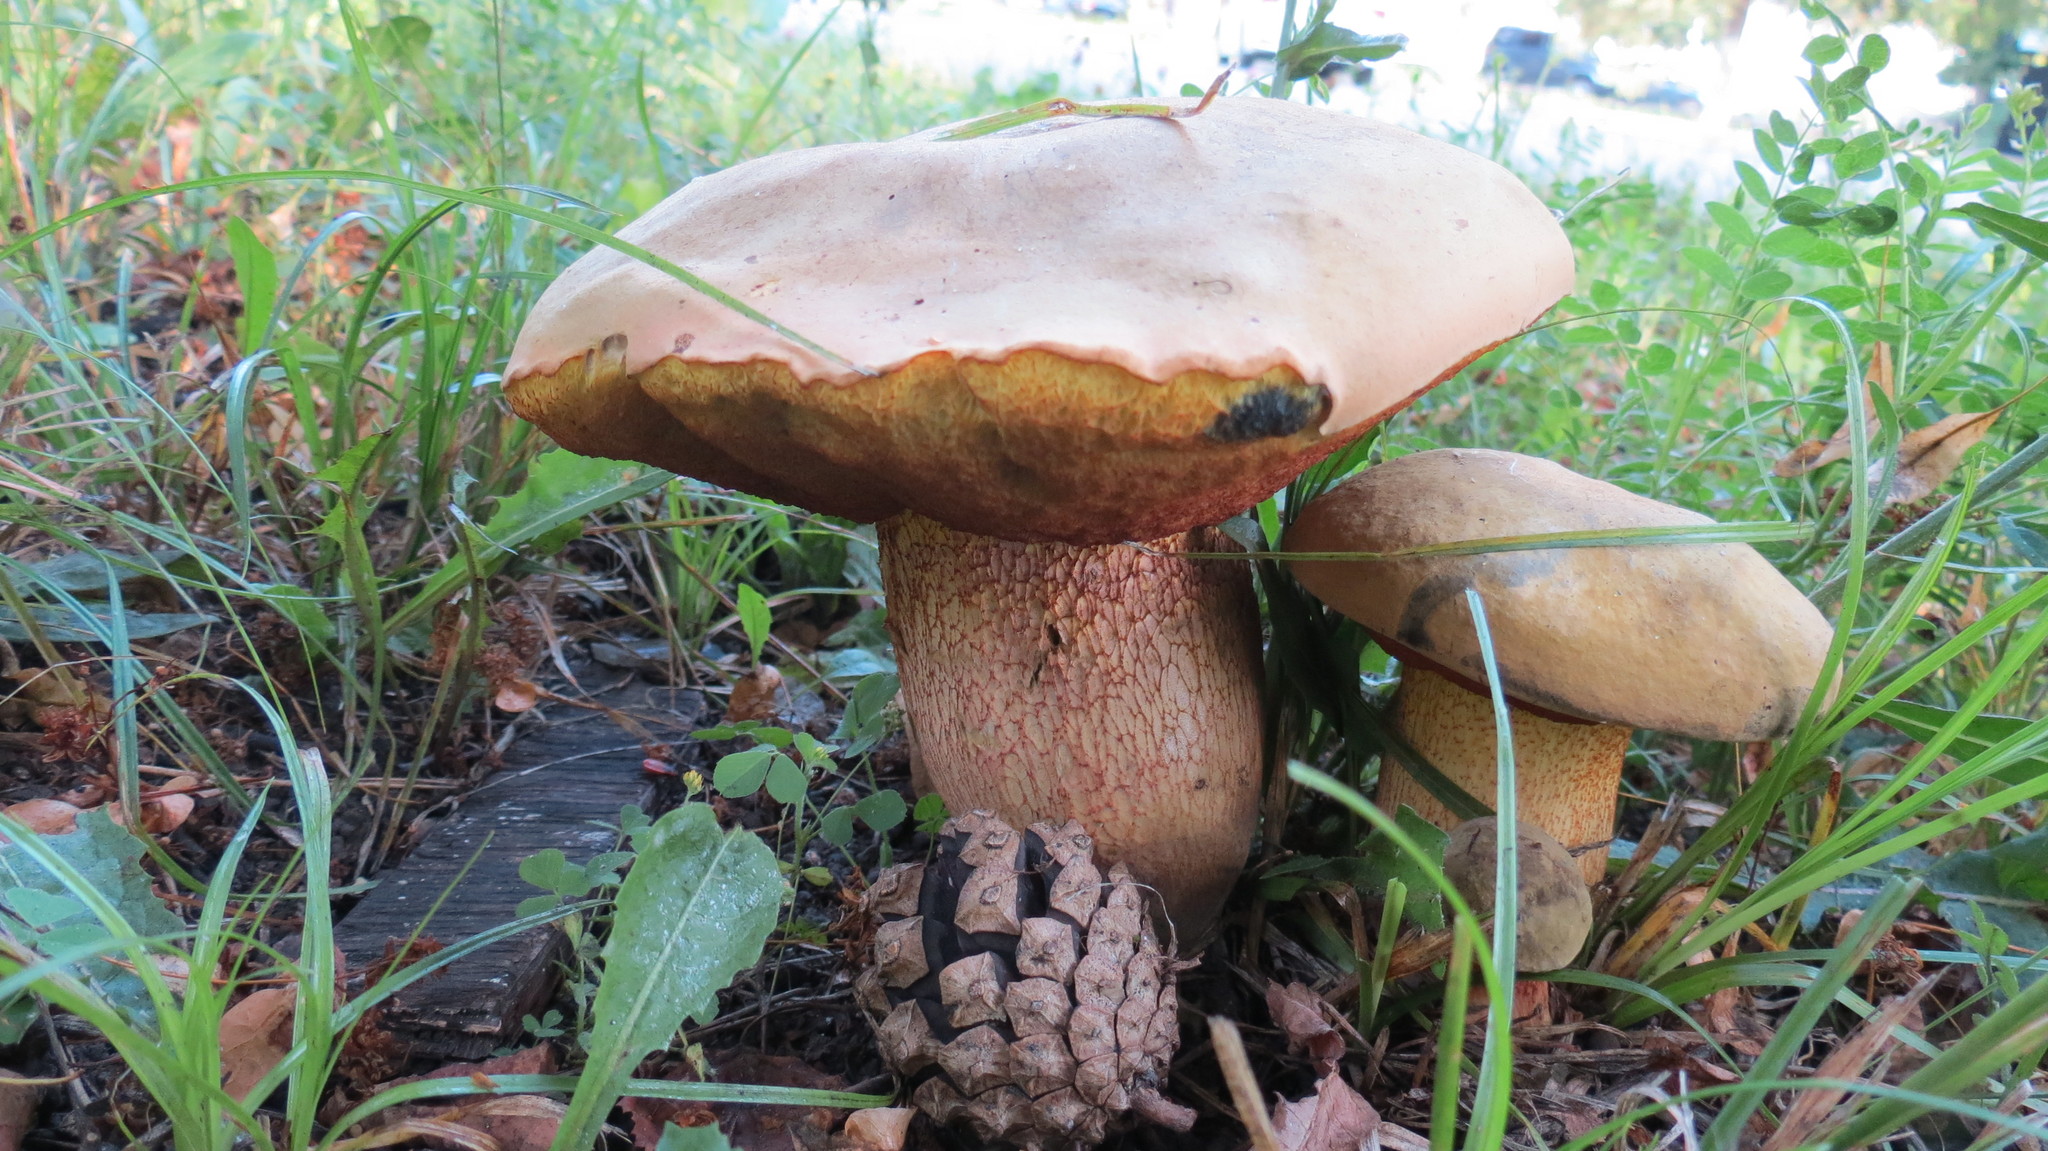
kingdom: Fungi
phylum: Basidiomycota
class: Agaricomycetes
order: Boletales
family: Boletaceae
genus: Suillellus
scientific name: Suillellus luridus
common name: Lurid bolete
